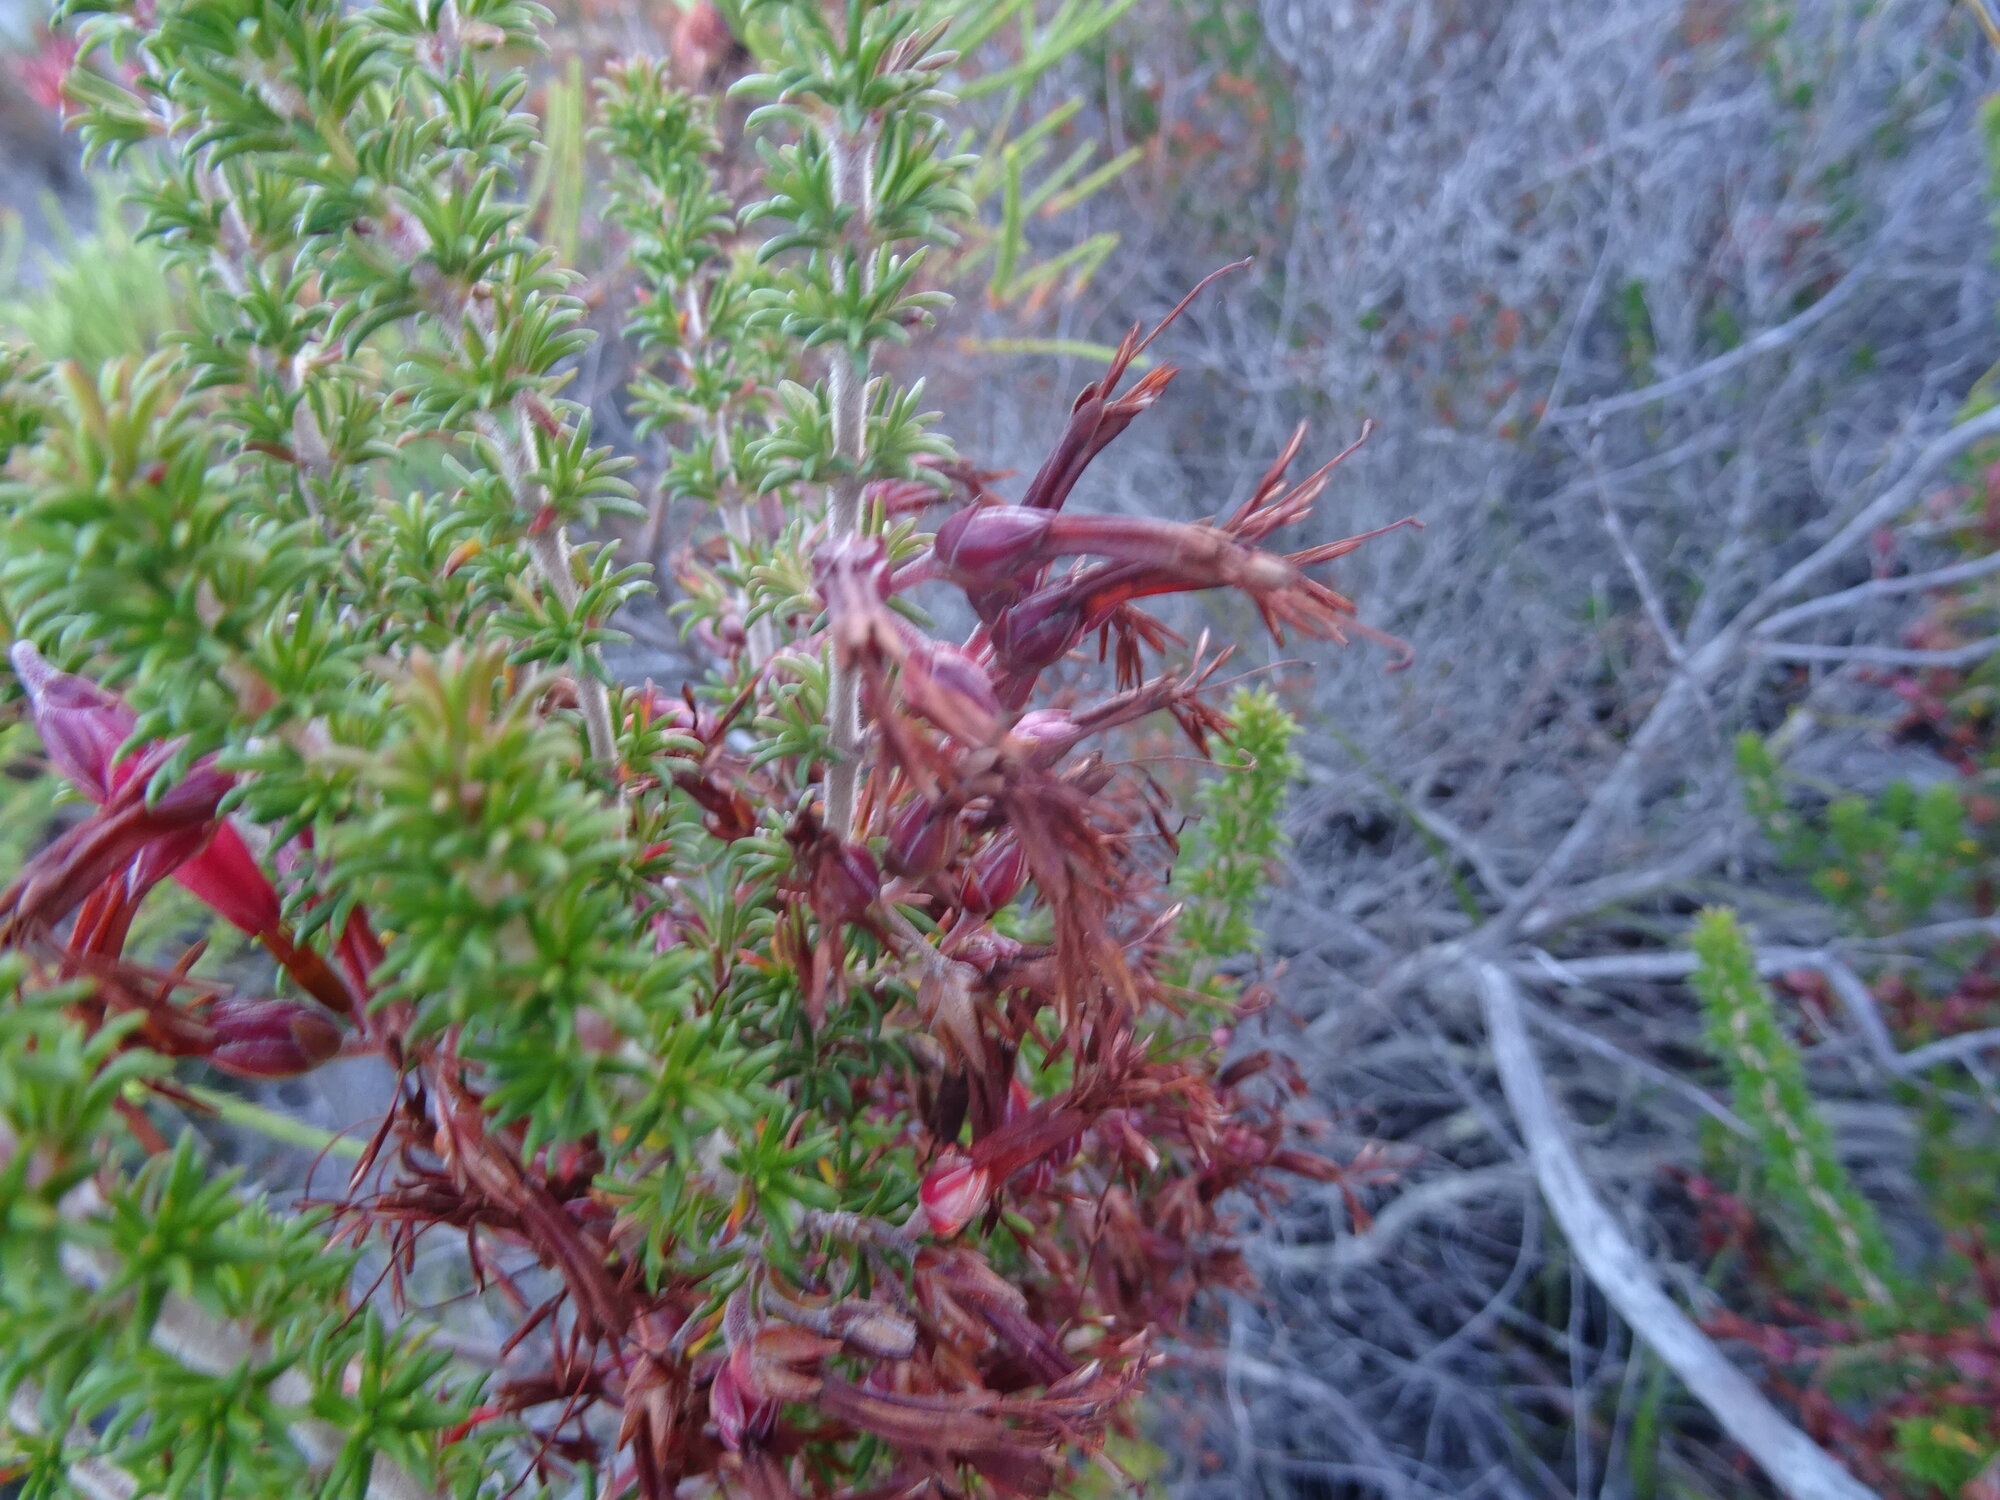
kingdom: Plantae
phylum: Tracheophyta
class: Magnoliopsida
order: Ericales
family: Ericaceae
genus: Erica
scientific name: Erica coccinea
